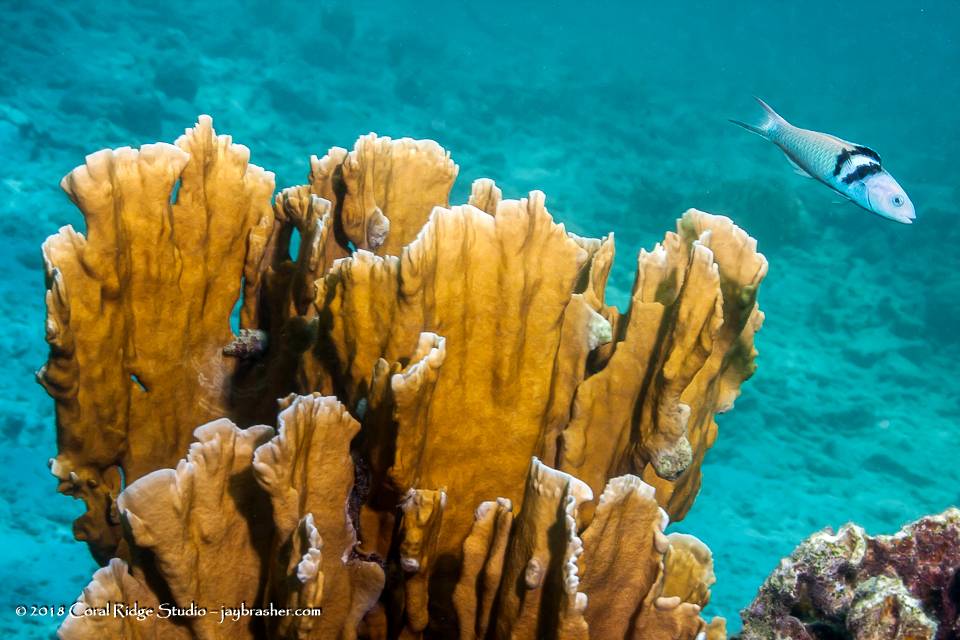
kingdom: Animalia
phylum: Cnidaria
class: Hydrozoa
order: Anthoathecata
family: Milleporidae
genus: Millepora
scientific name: Millepora complanata
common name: Bladed fire coral
